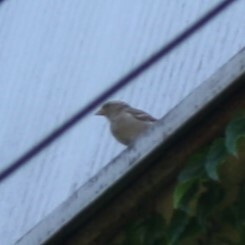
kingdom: Animalia
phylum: Chordata
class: Aves
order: Passeriformes
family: Passeridae
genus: Passer
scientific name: Passer domesticus
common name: House sparrow
